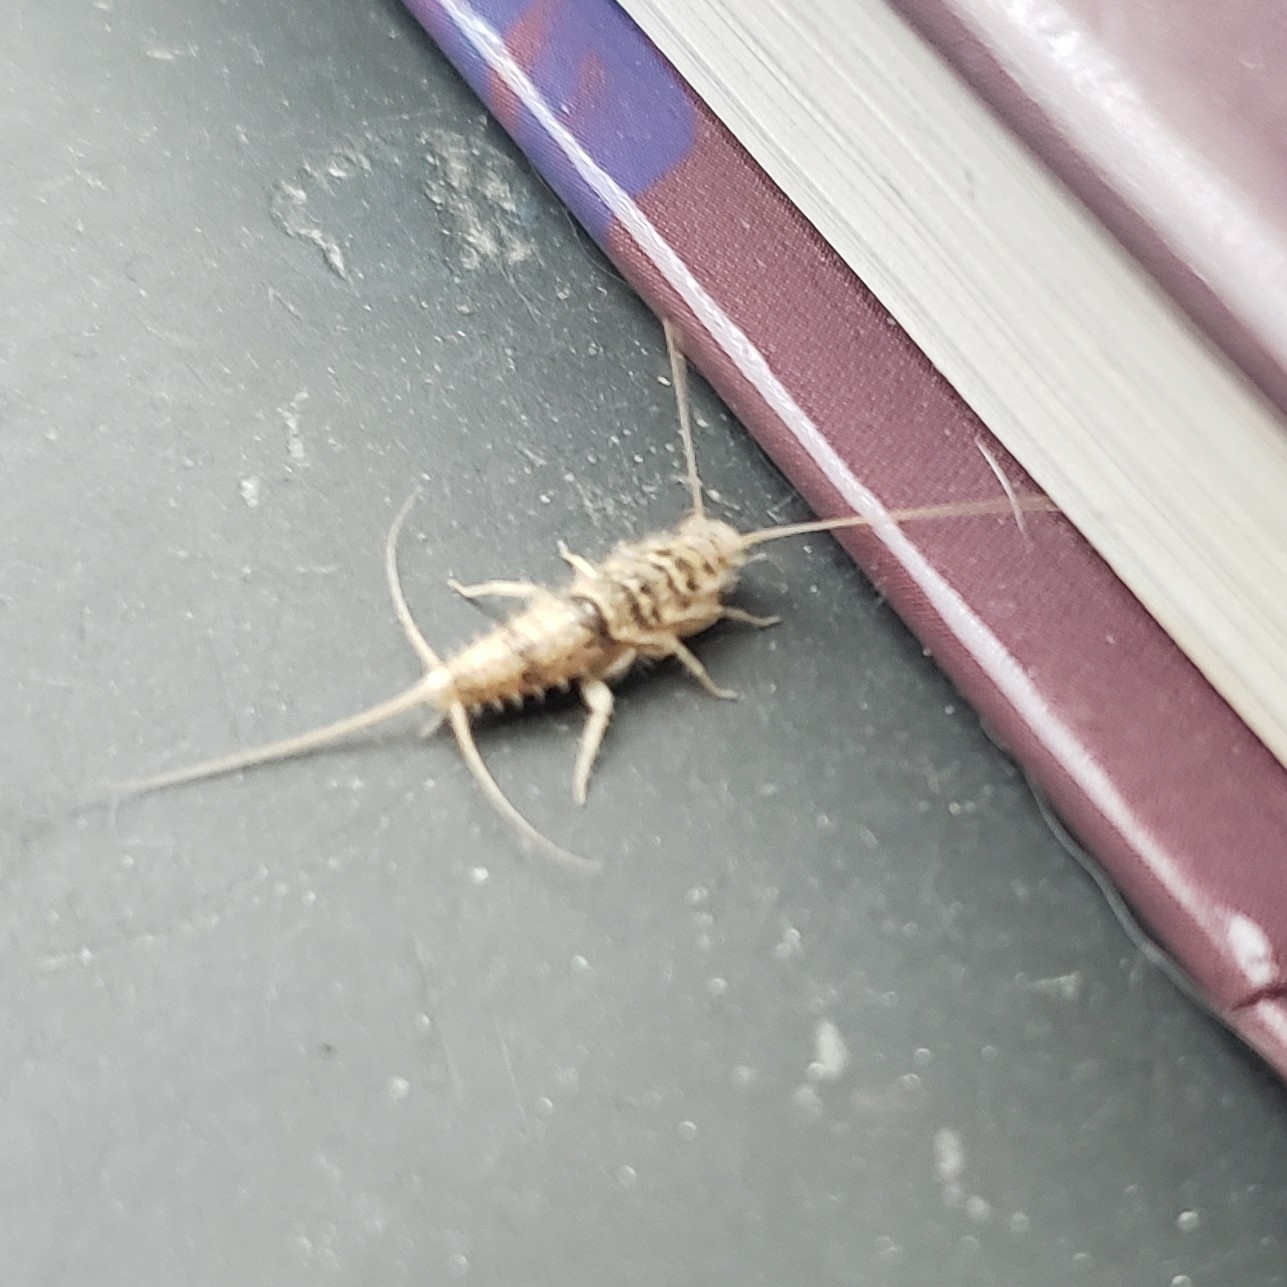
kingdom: Animalia
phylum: Arthropoda
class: Insecta
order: Zygentoma
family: Lepismatidae
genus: Thermobia
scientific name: Thermobia domestica
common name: Firebrat
